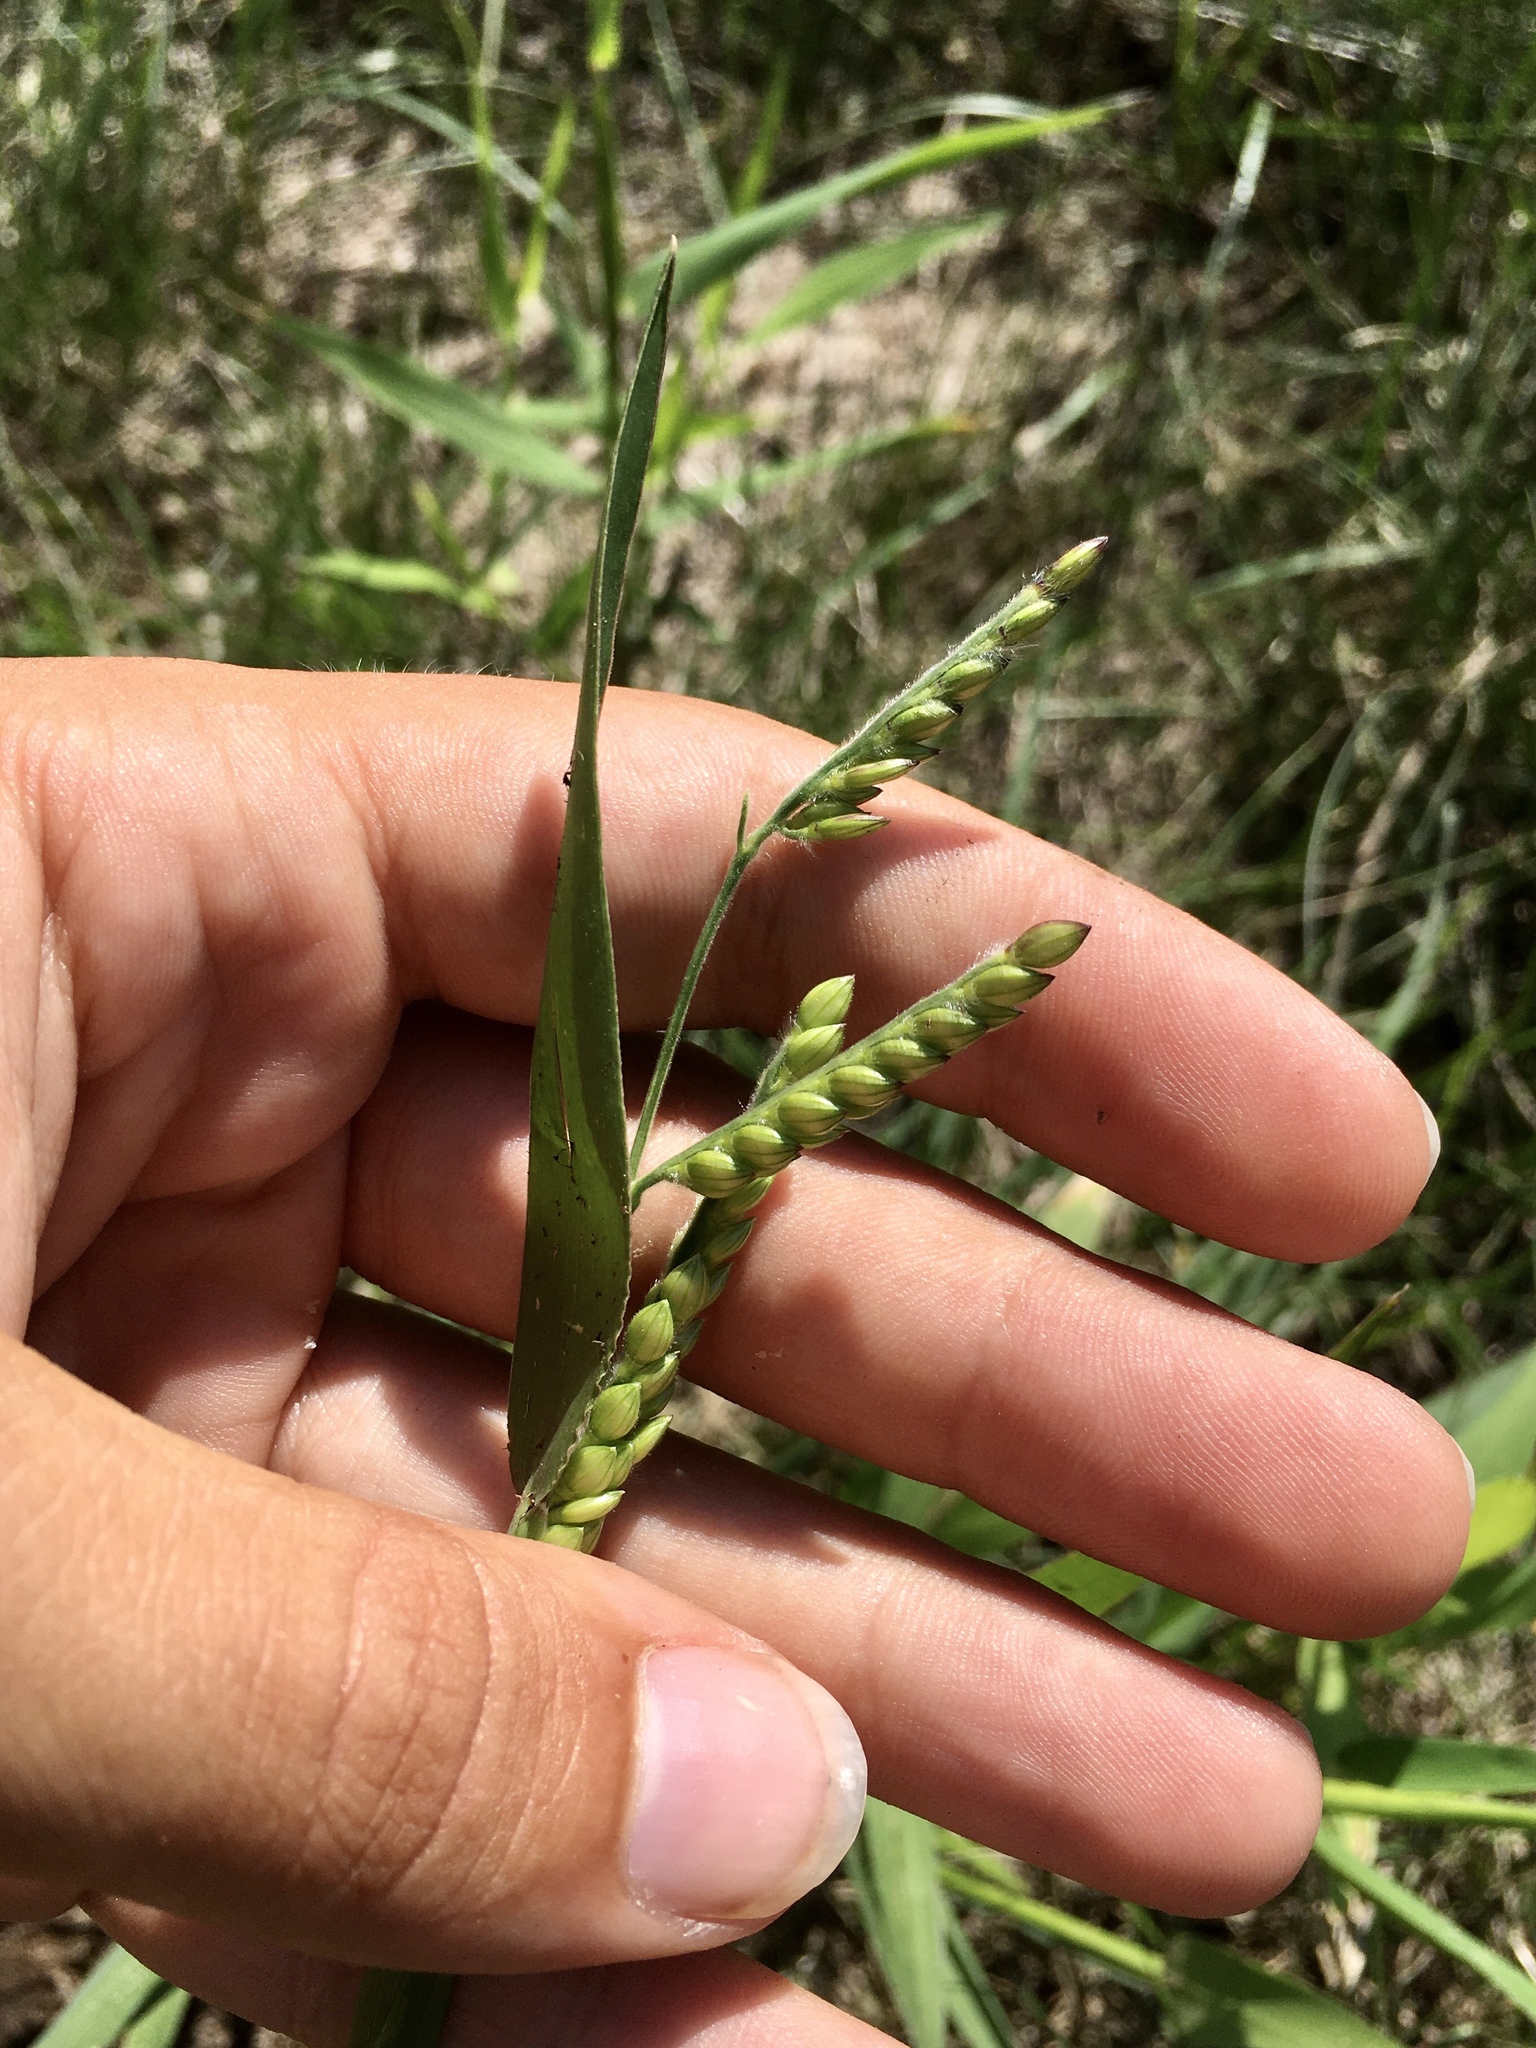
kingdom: Plantae
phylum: Tracheophyta
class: Liliopsida
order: Poales
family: Poaceae
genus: Eriochloa
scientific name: Eriochloa villosa
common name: Hairy cupgrass
